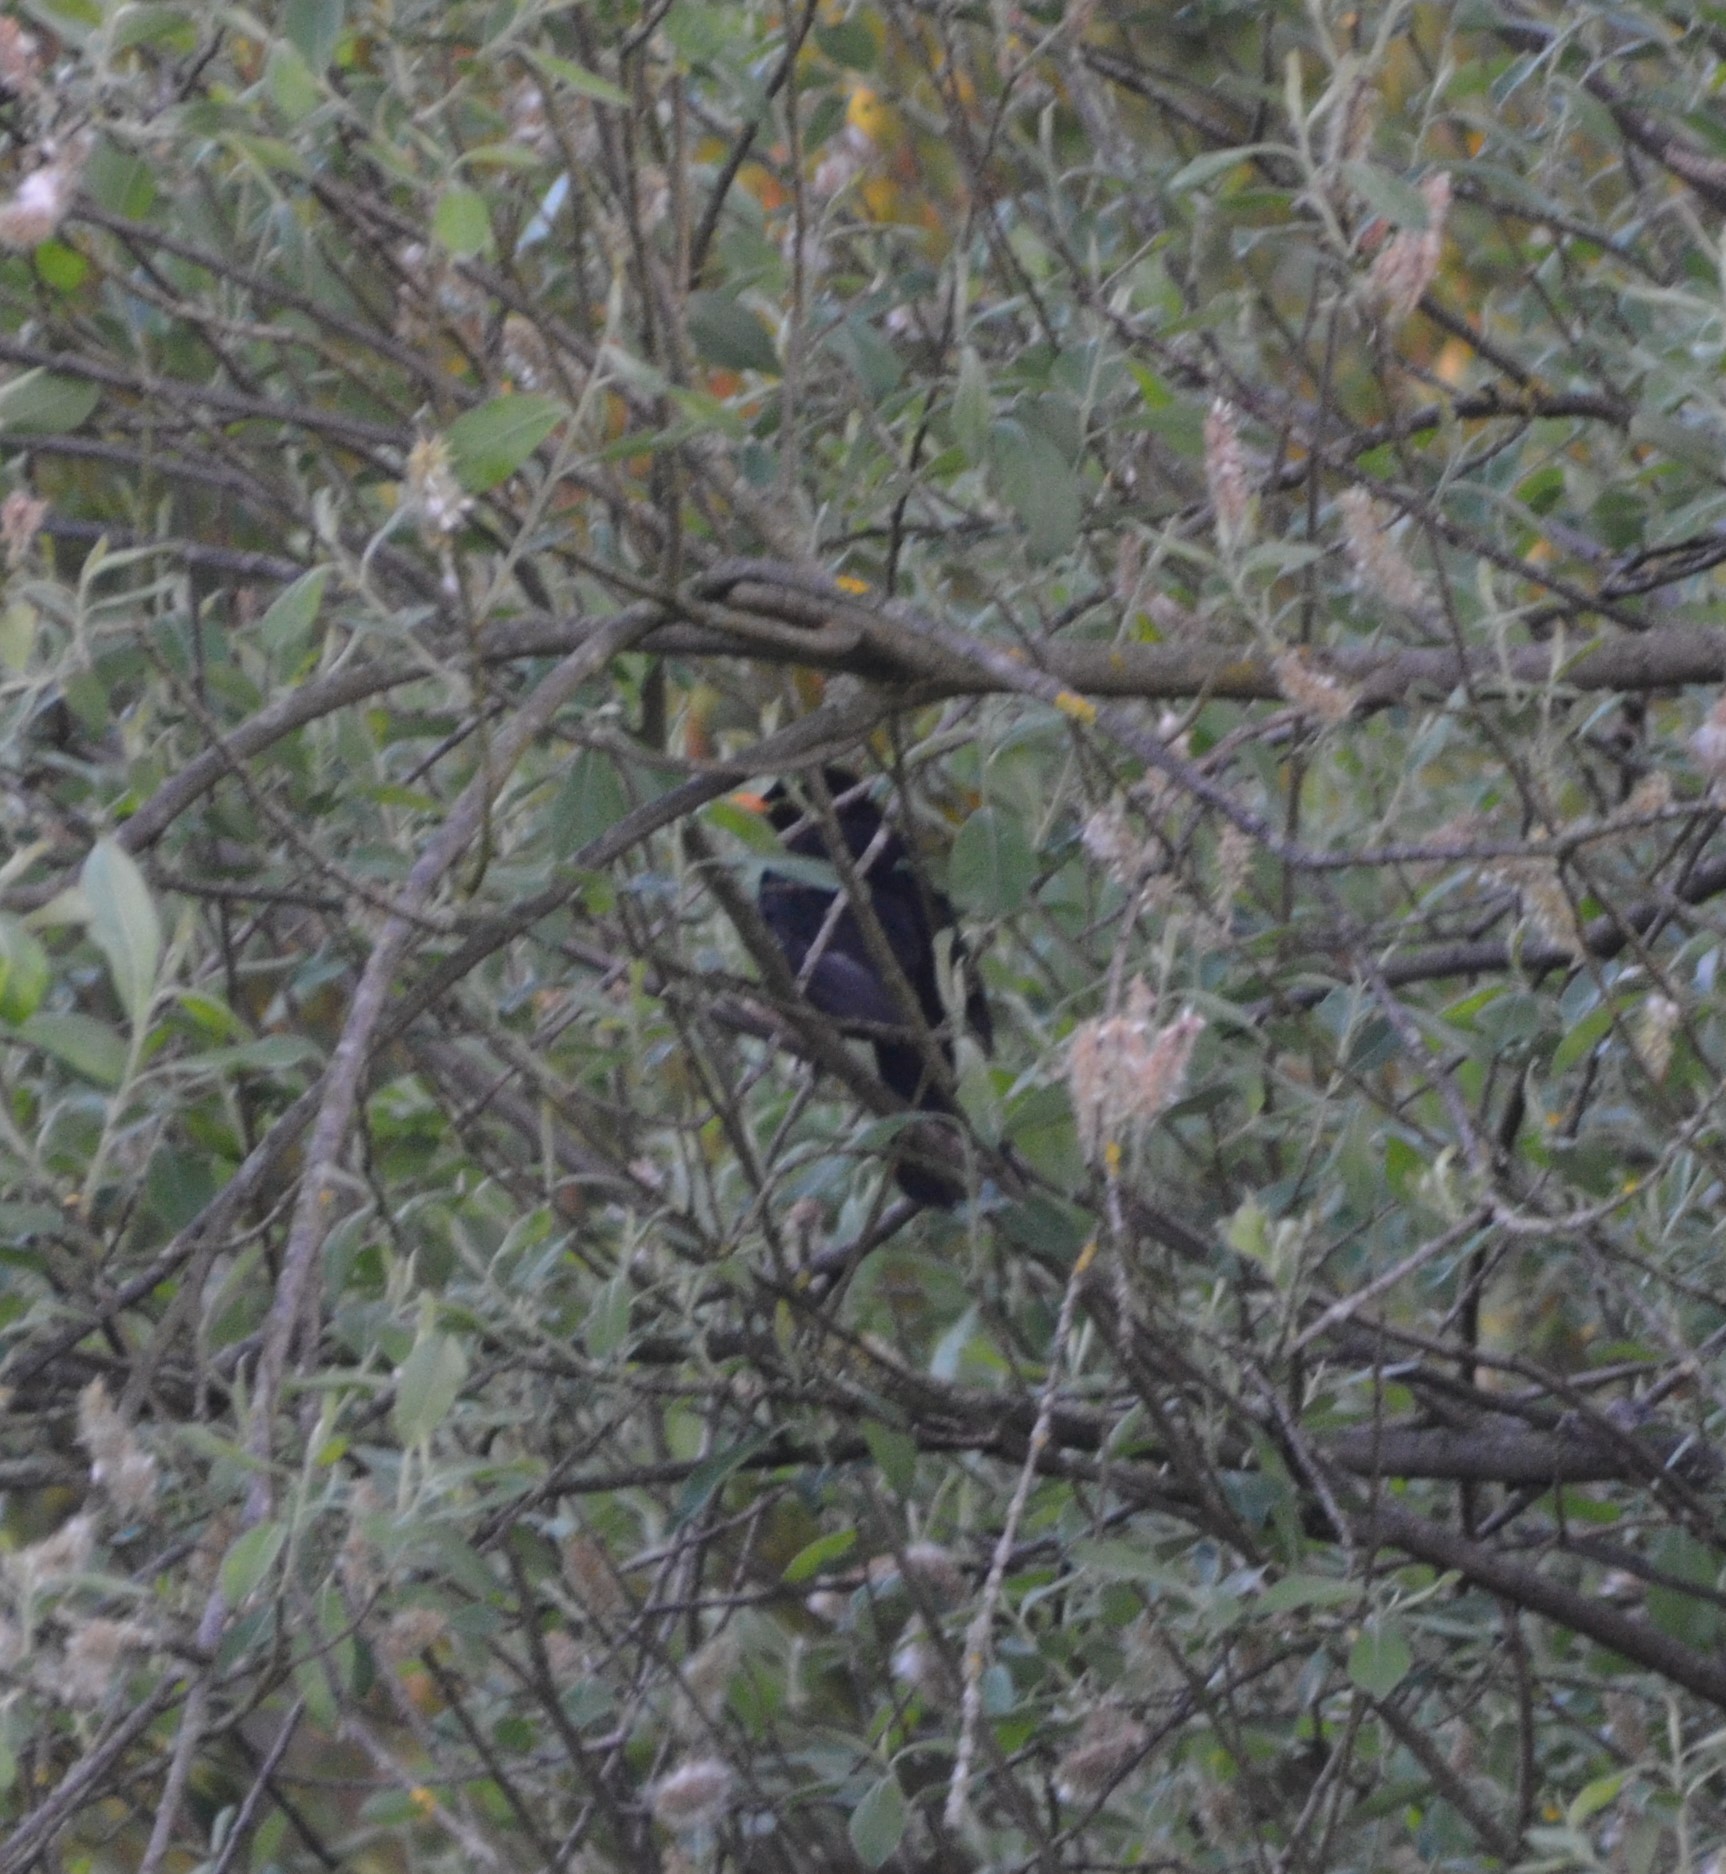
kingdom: Animalia
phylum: Chordata
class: Aves
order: Passeriformes
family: Turdidae
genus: Turdus
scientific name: Turdus merula
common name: Common blackbird
